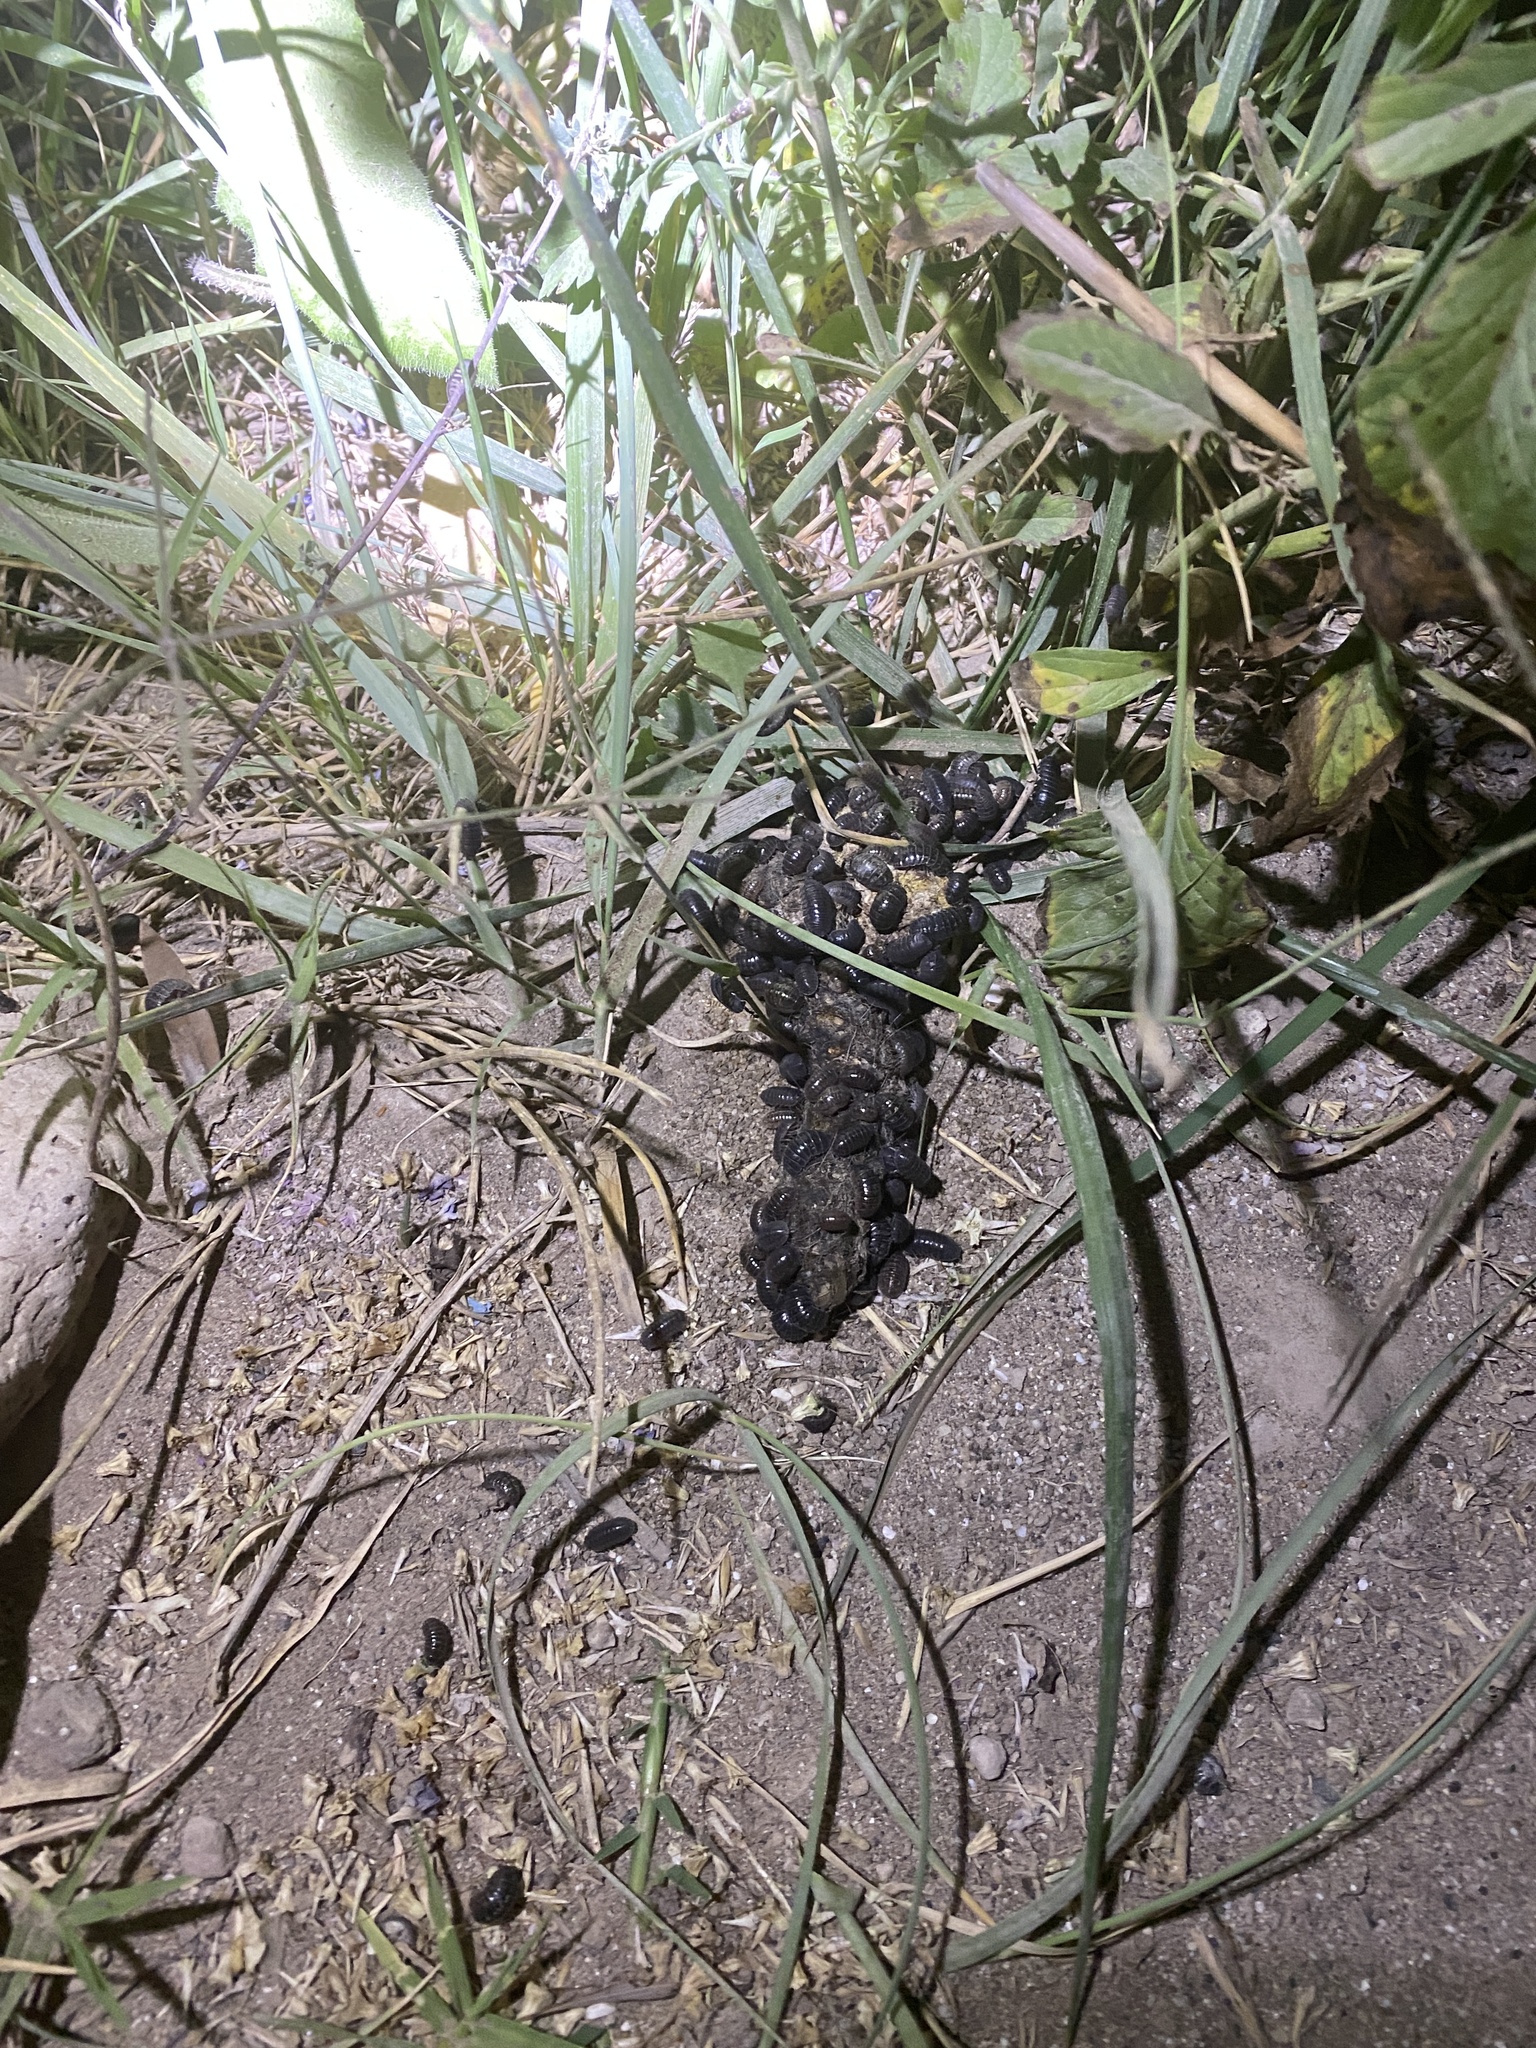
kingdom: Animalia
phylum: Arthropoda
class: Malacostraca
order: Isopoda
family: Armadillidiidae
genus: Armadillidium
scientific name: Armadillidium vulgare
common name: Common pill woodlouse
